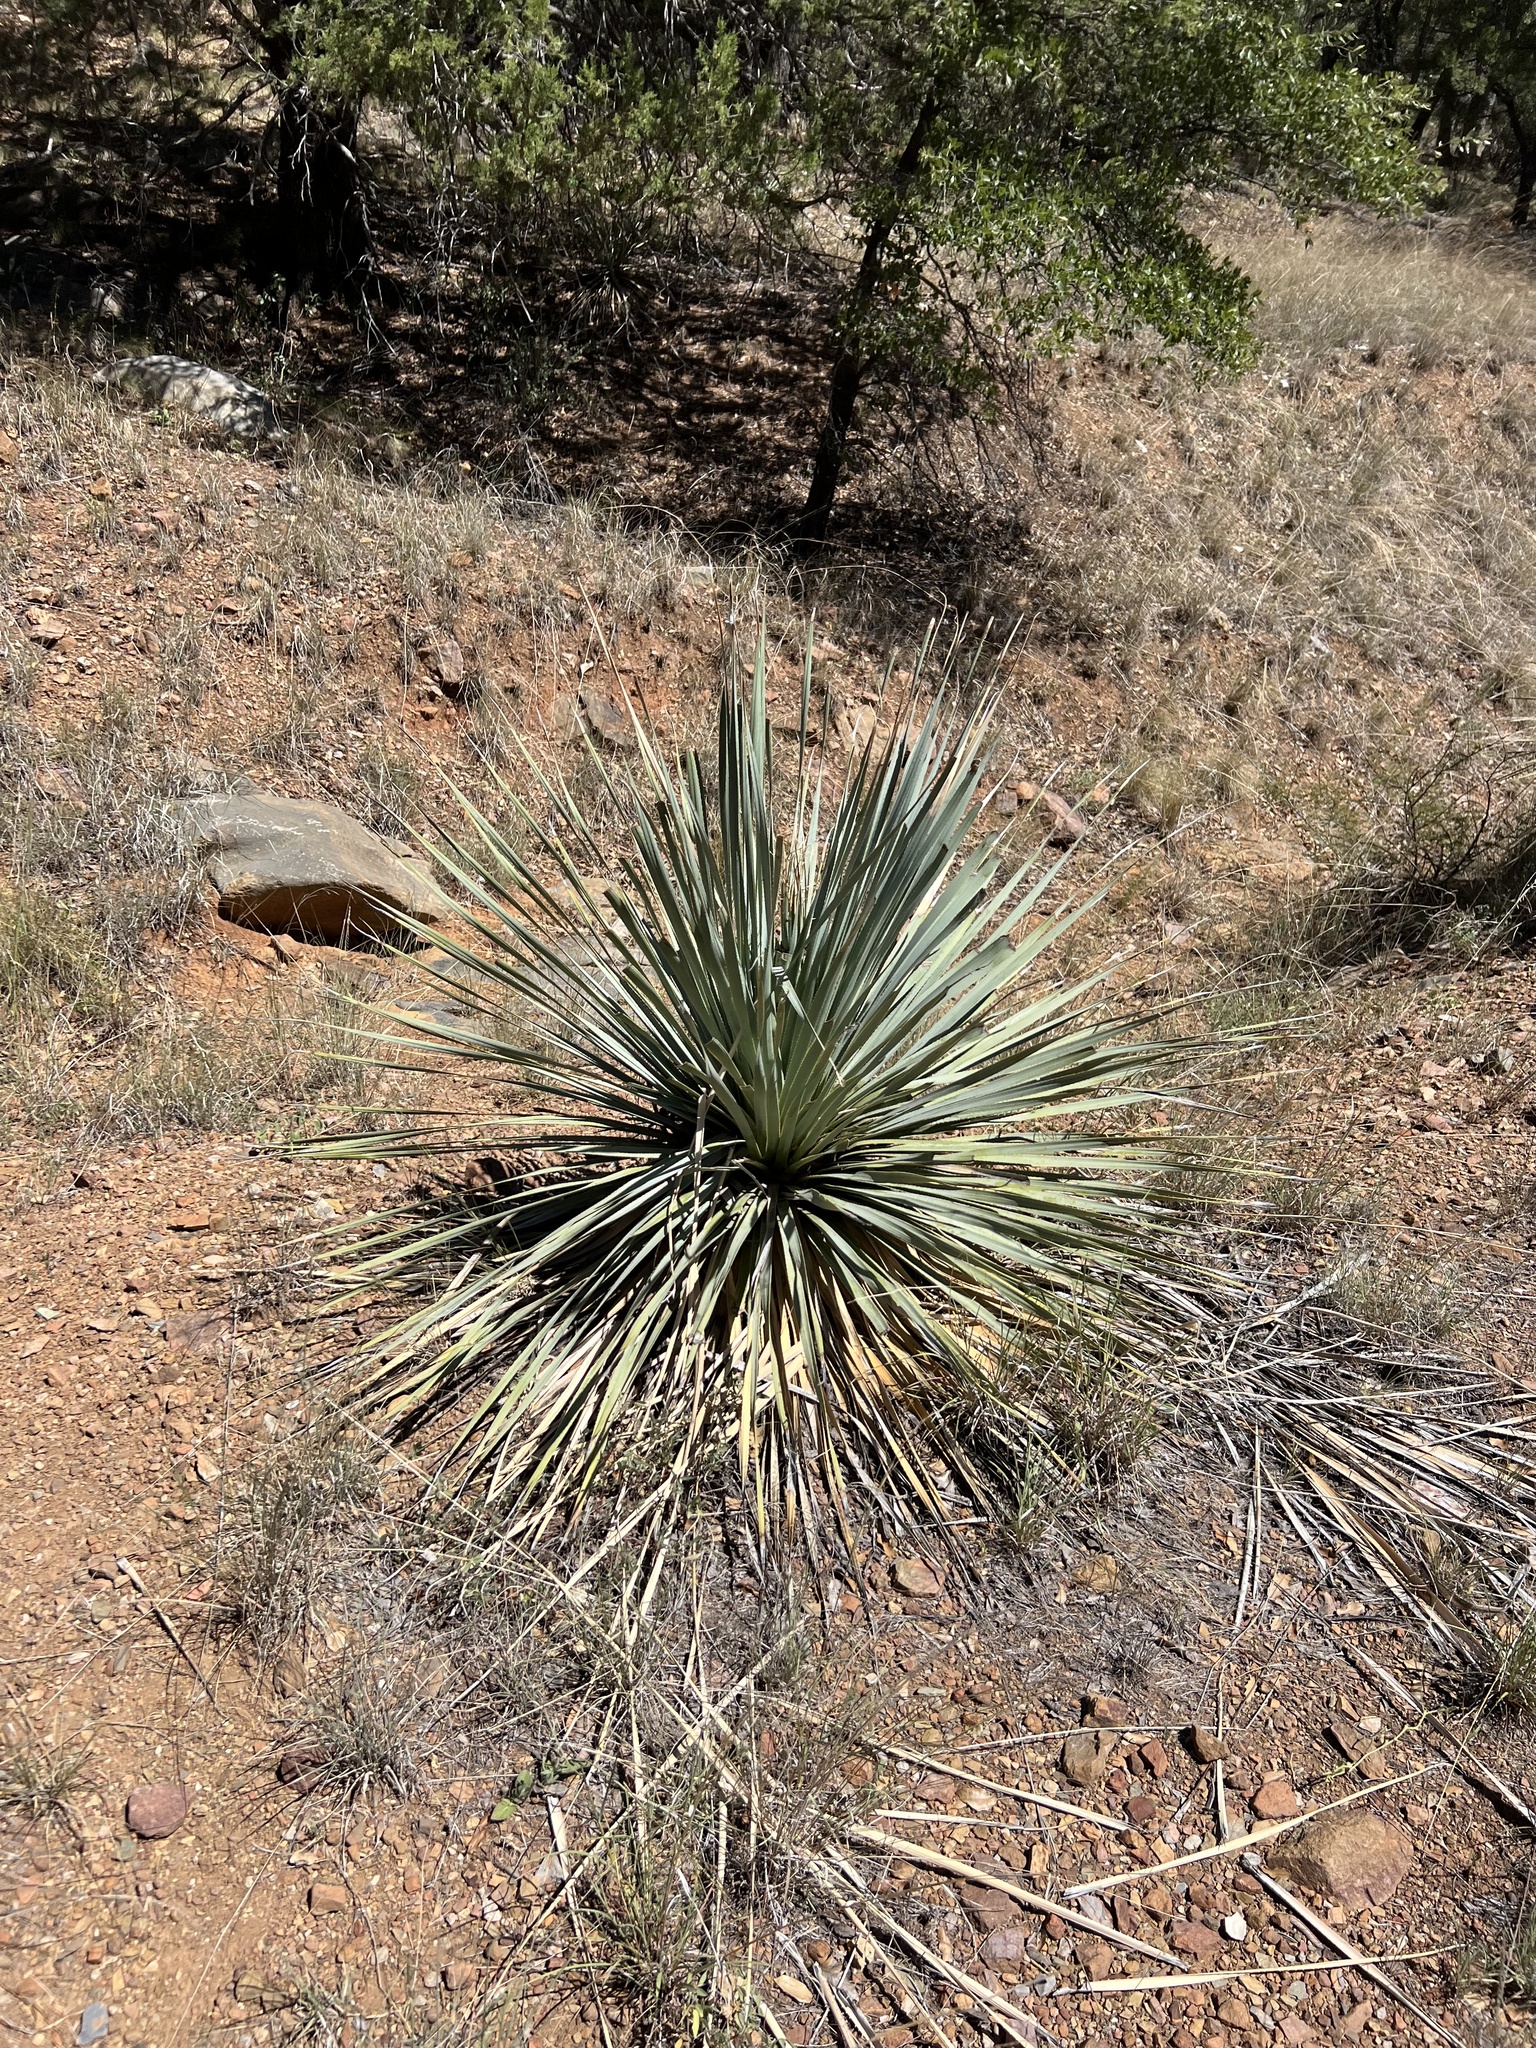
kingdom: Plantae
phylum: Tracheophyta
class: Liliopsida
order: Asparagales
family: Asparagaceae
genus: Dasylirion
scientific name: Dasylirion wheeleri
